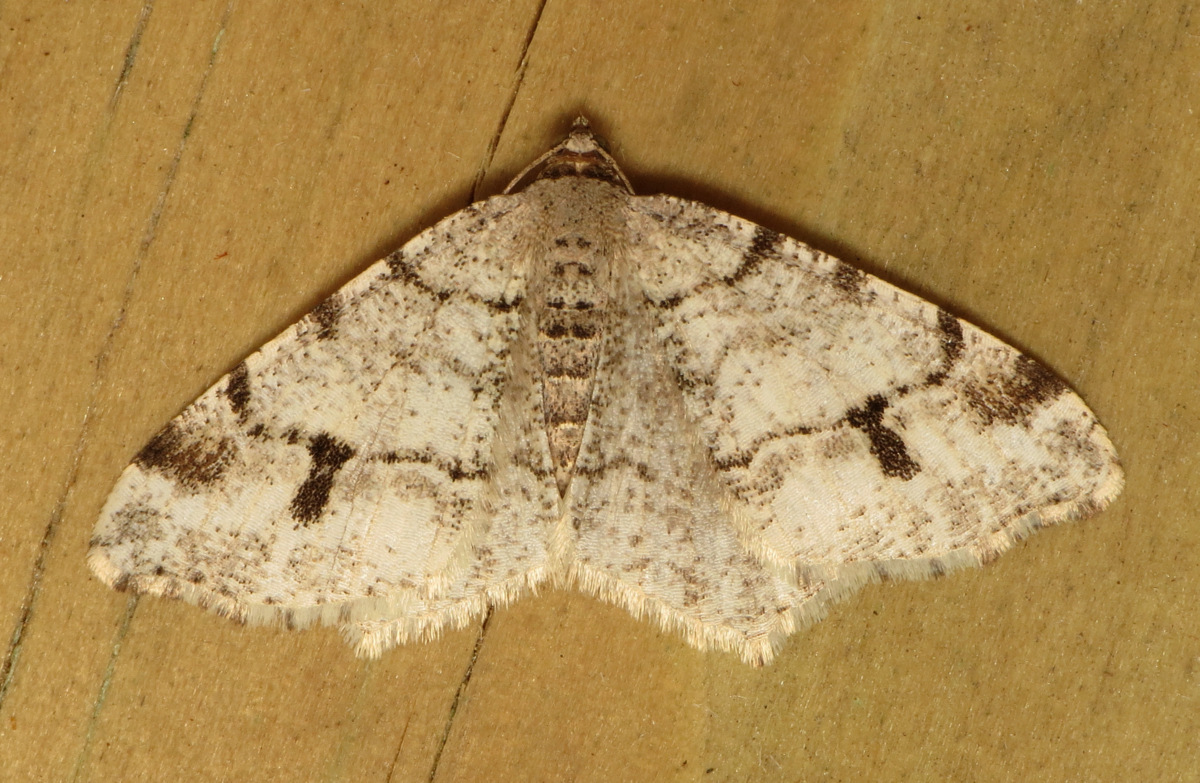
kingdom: Animalia
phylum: Arthropoda
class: Insecta
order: Lepidoptera
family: Geometridae
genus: Macaria
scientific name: Macaria fissinotata
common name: Hemlock angle
